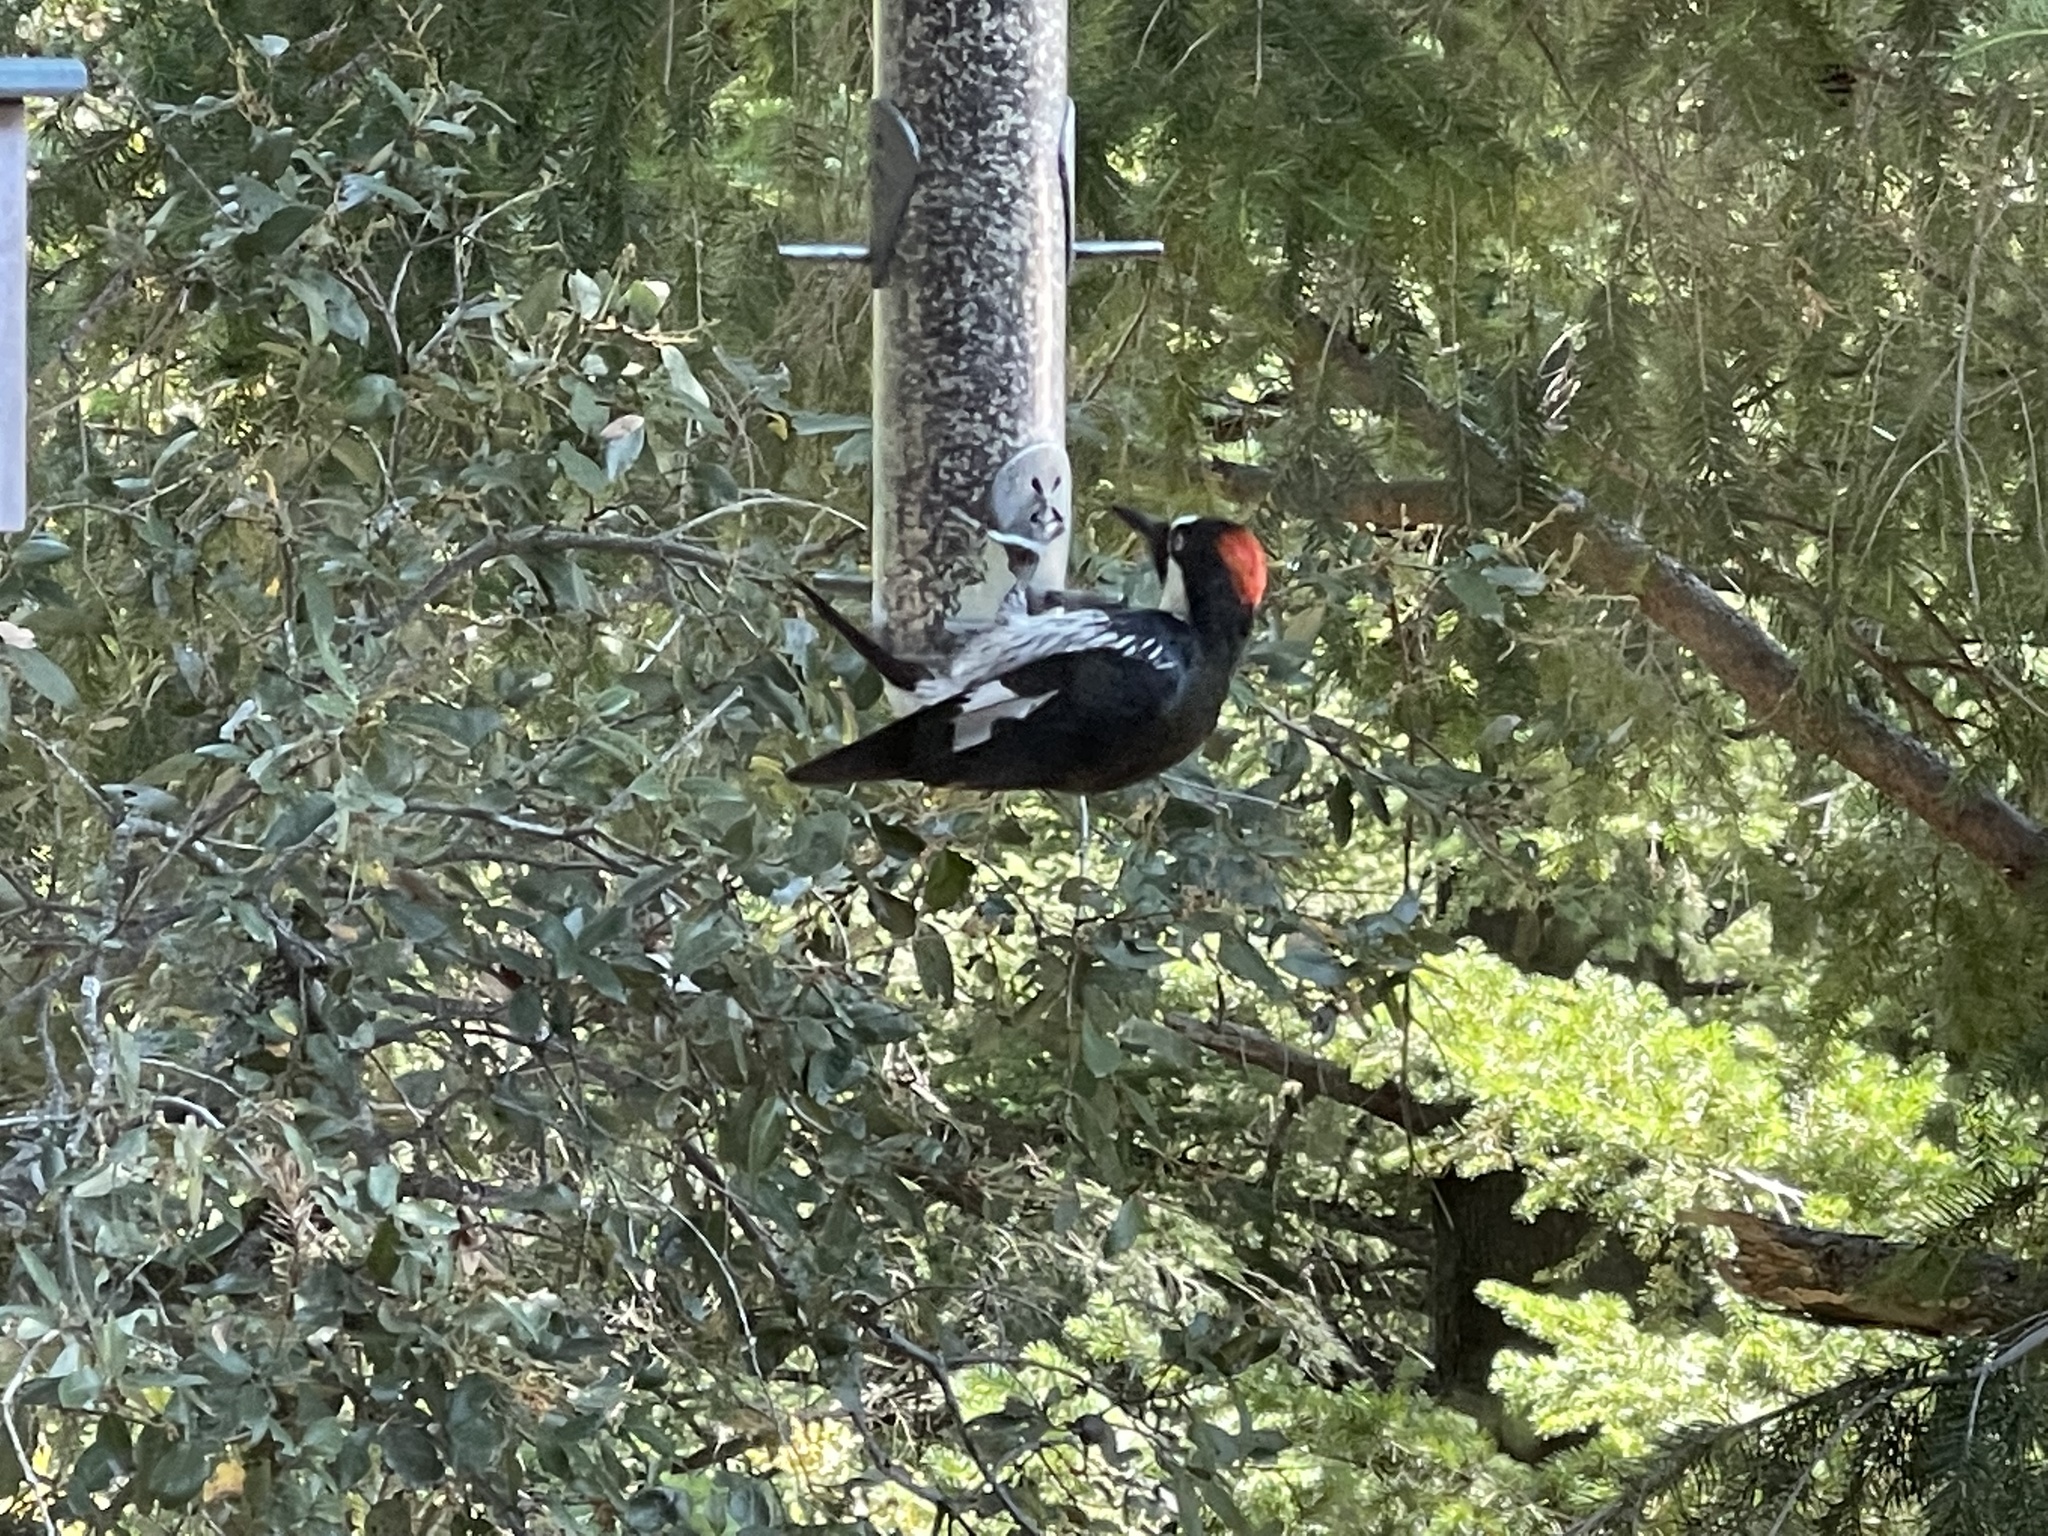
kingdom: Animalia
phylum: Chordata
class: Aves
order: Piciformes
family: Picidae
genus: Melanerpes
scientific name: Melanerpes formicivorus
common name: Acorn woodpecker
